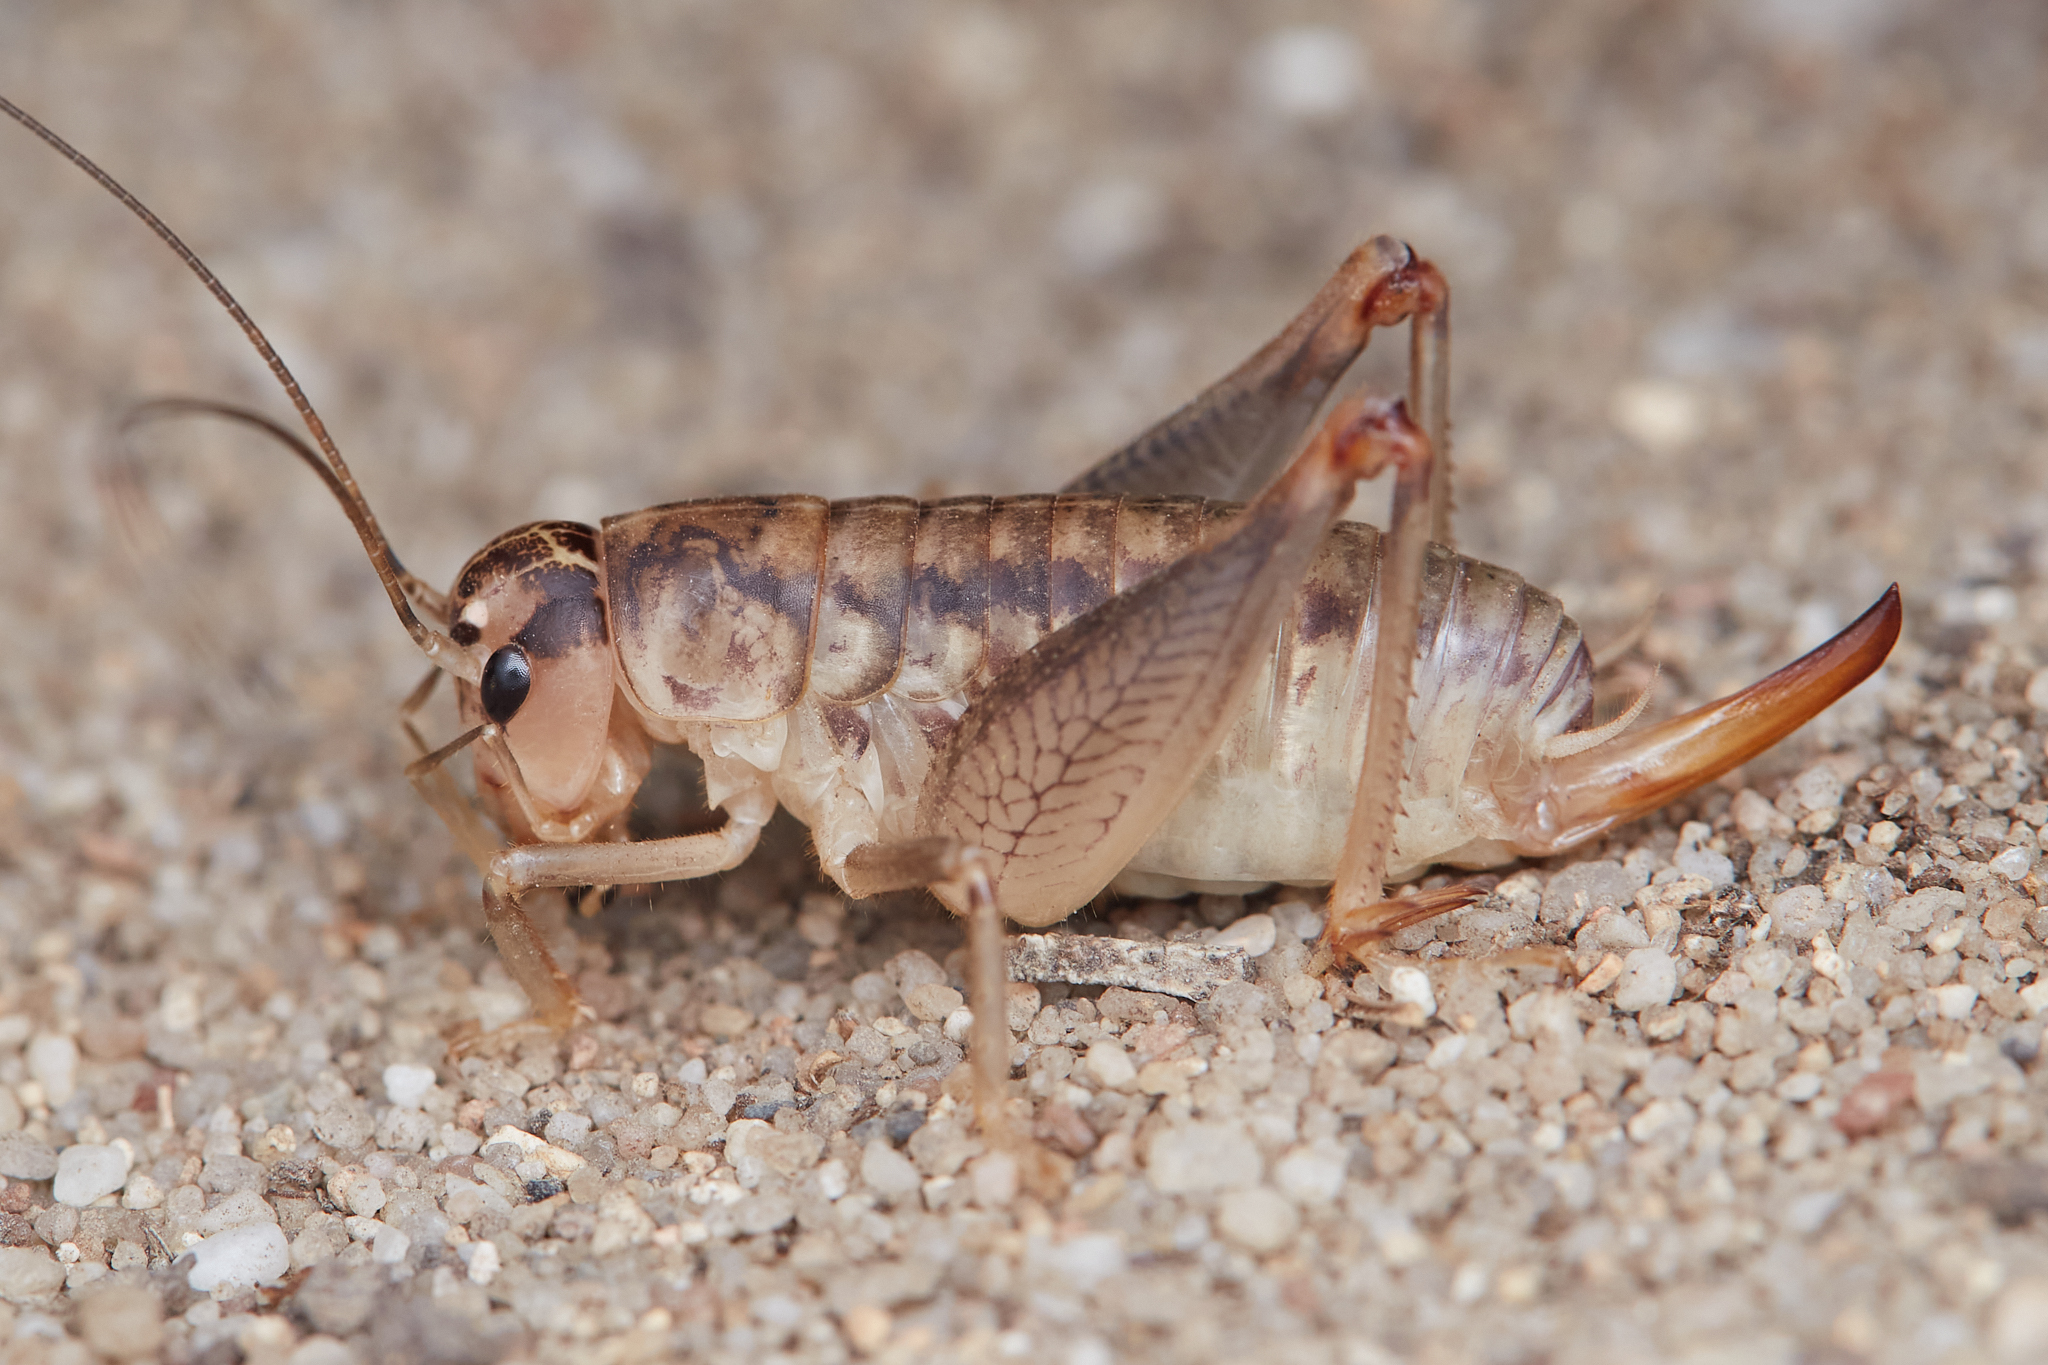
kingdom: Animalia
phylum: Arthropoda
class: Insecta
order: Orthoptera
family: Anostostomatidae
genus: Cnemotettix
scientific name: Cnemotettix bifasciatus
